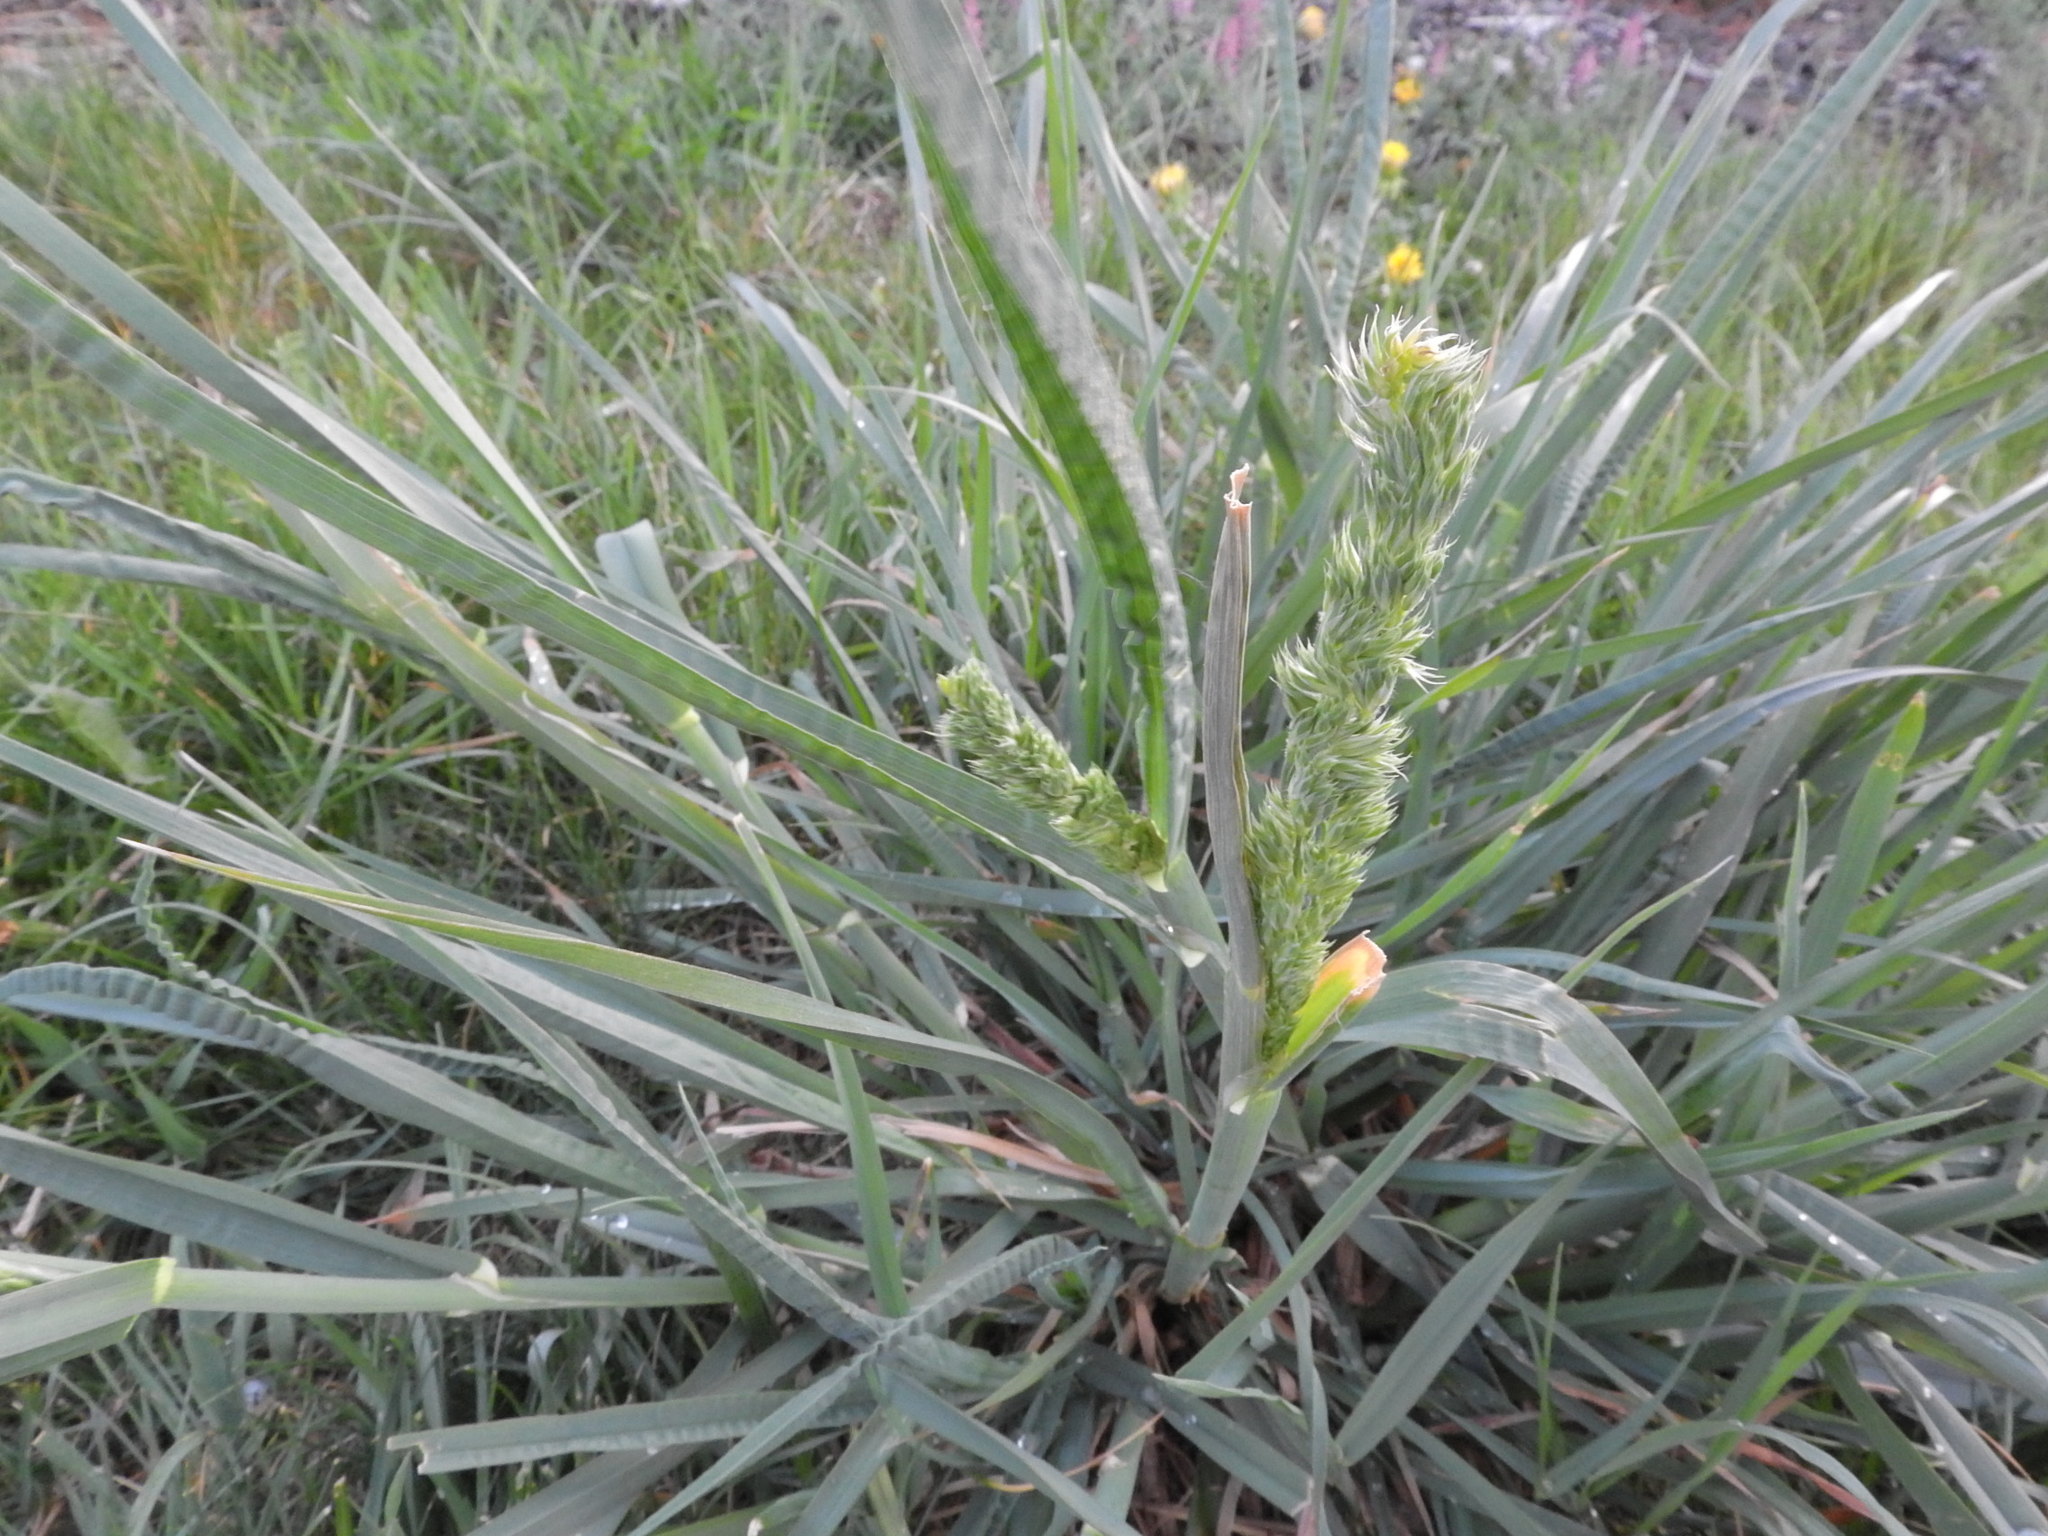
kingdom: Plantae
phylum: Tracheophyta
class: Liliopsida
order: Poales
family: Poaceae
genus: Dactylis
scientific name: Dactylis glomerata
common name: Orchardgrass
